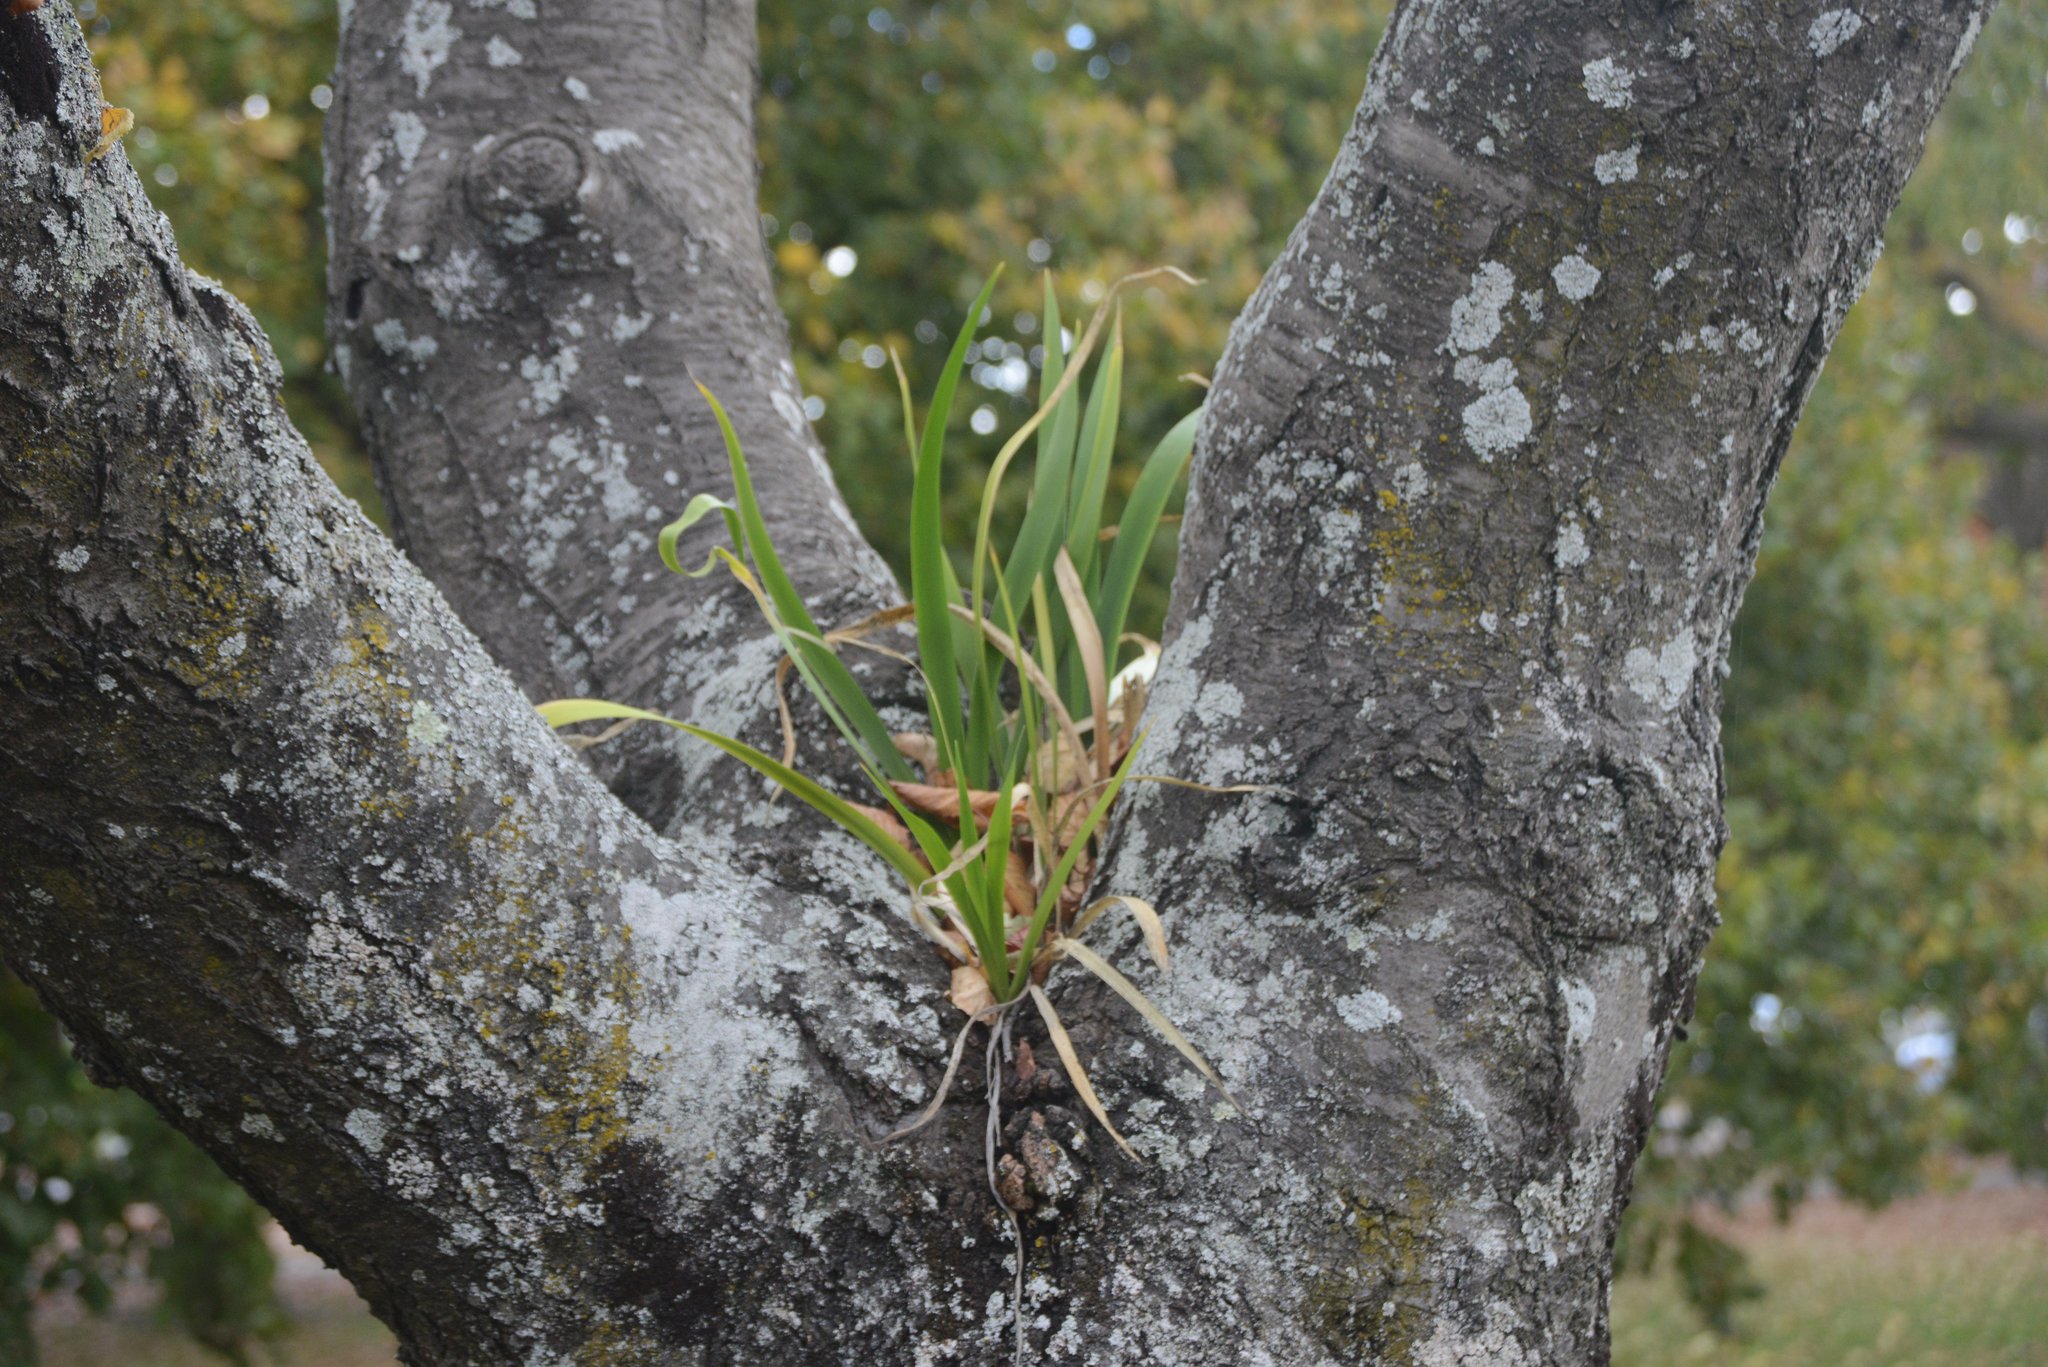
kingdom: Plantae
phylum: Tracheophyta
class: Liliopsida
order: Asparagales
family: Iridaceae
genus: Iris
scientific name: Iris foetidissima
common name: Stinking iris
